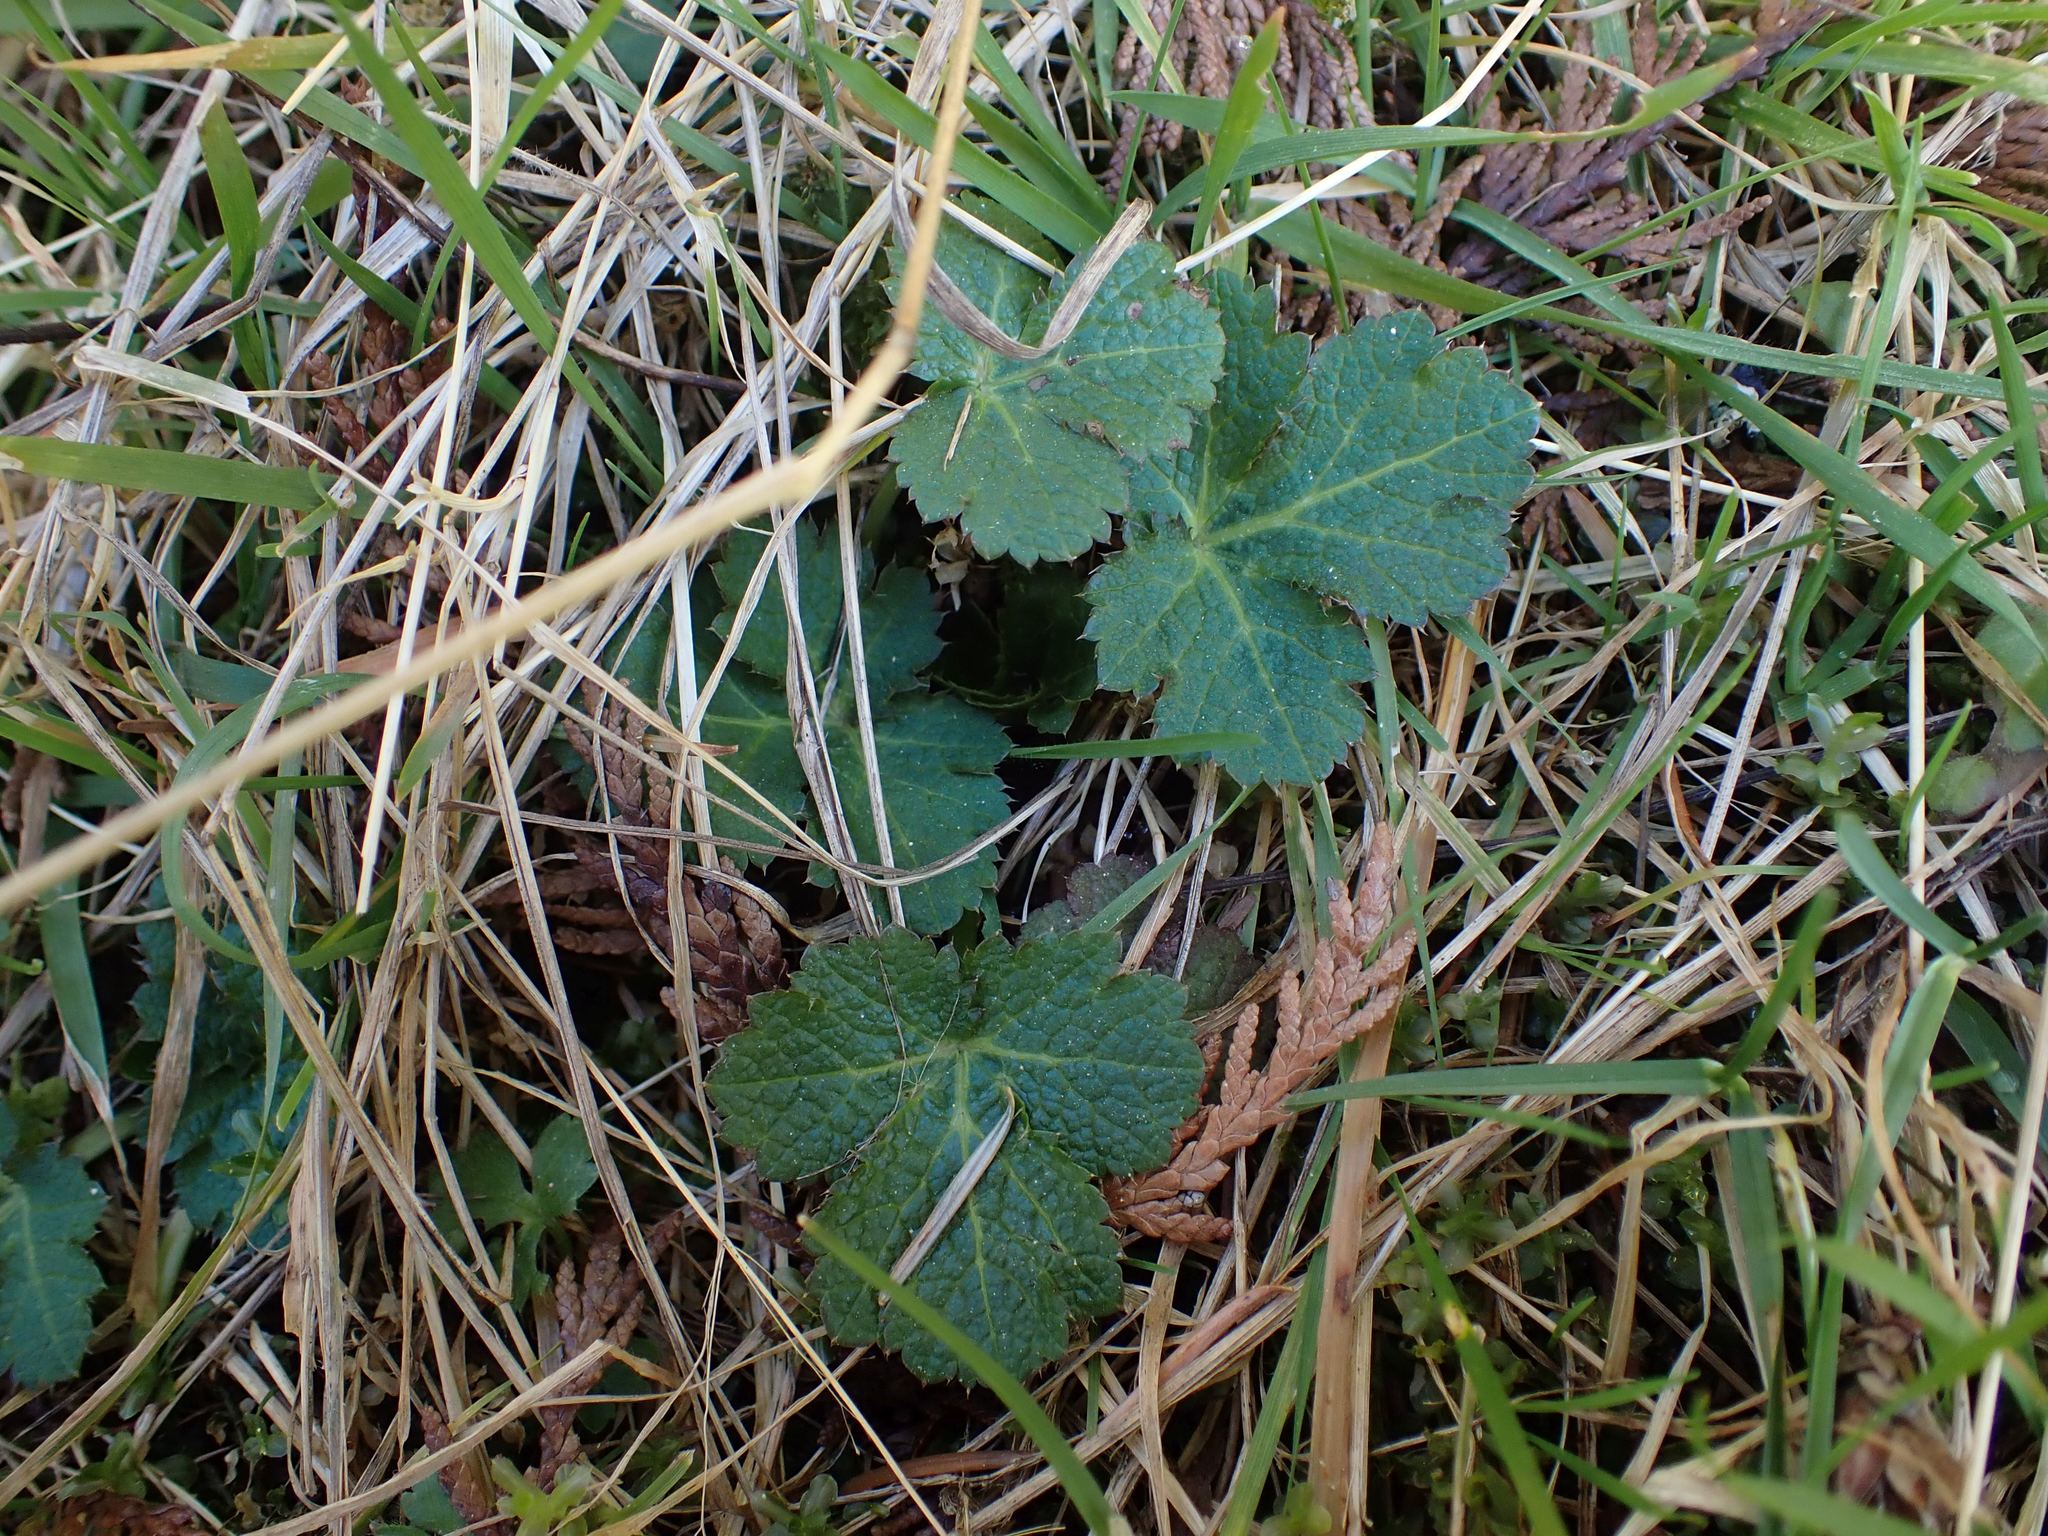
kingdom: Plantae
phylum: Tracheophyta
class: Magnoliopsida
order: Apiales
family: Apiaceae
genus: Sanicula
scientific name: Sanicula crassicaulis
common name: Western snakeroot
